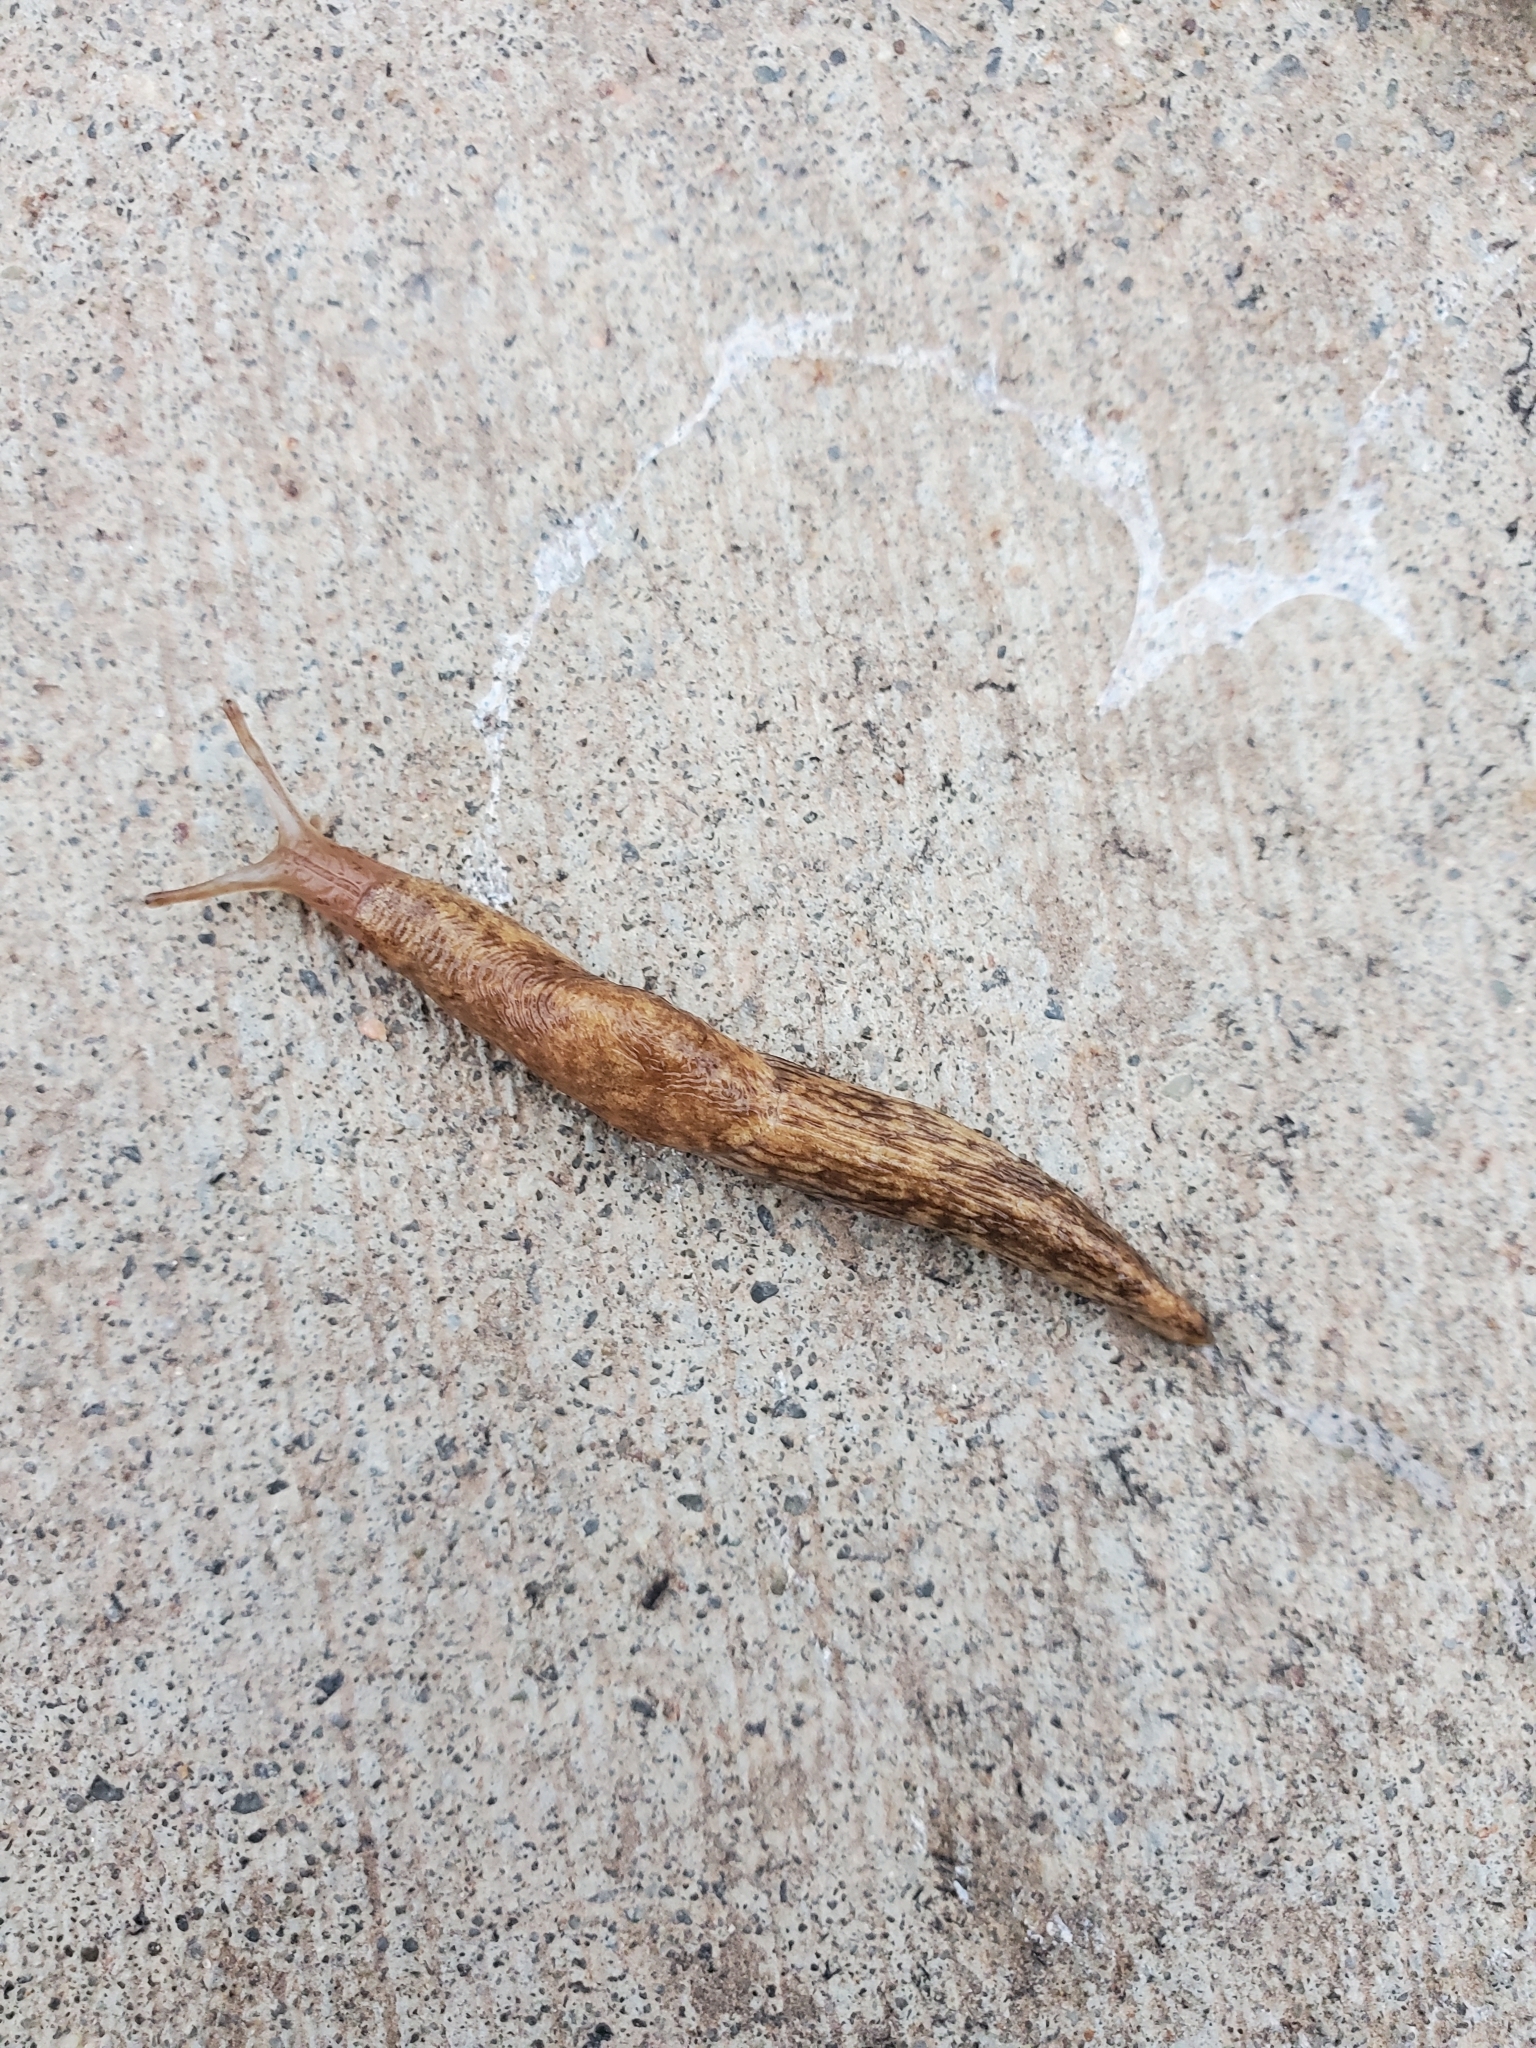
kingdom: Animalia
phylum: Mollusca
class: Gastropoda
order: Stylommatophora
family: Agriolimacidae
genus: Deroceras
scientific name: Deroceras reticulatum
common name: Gray field slug
